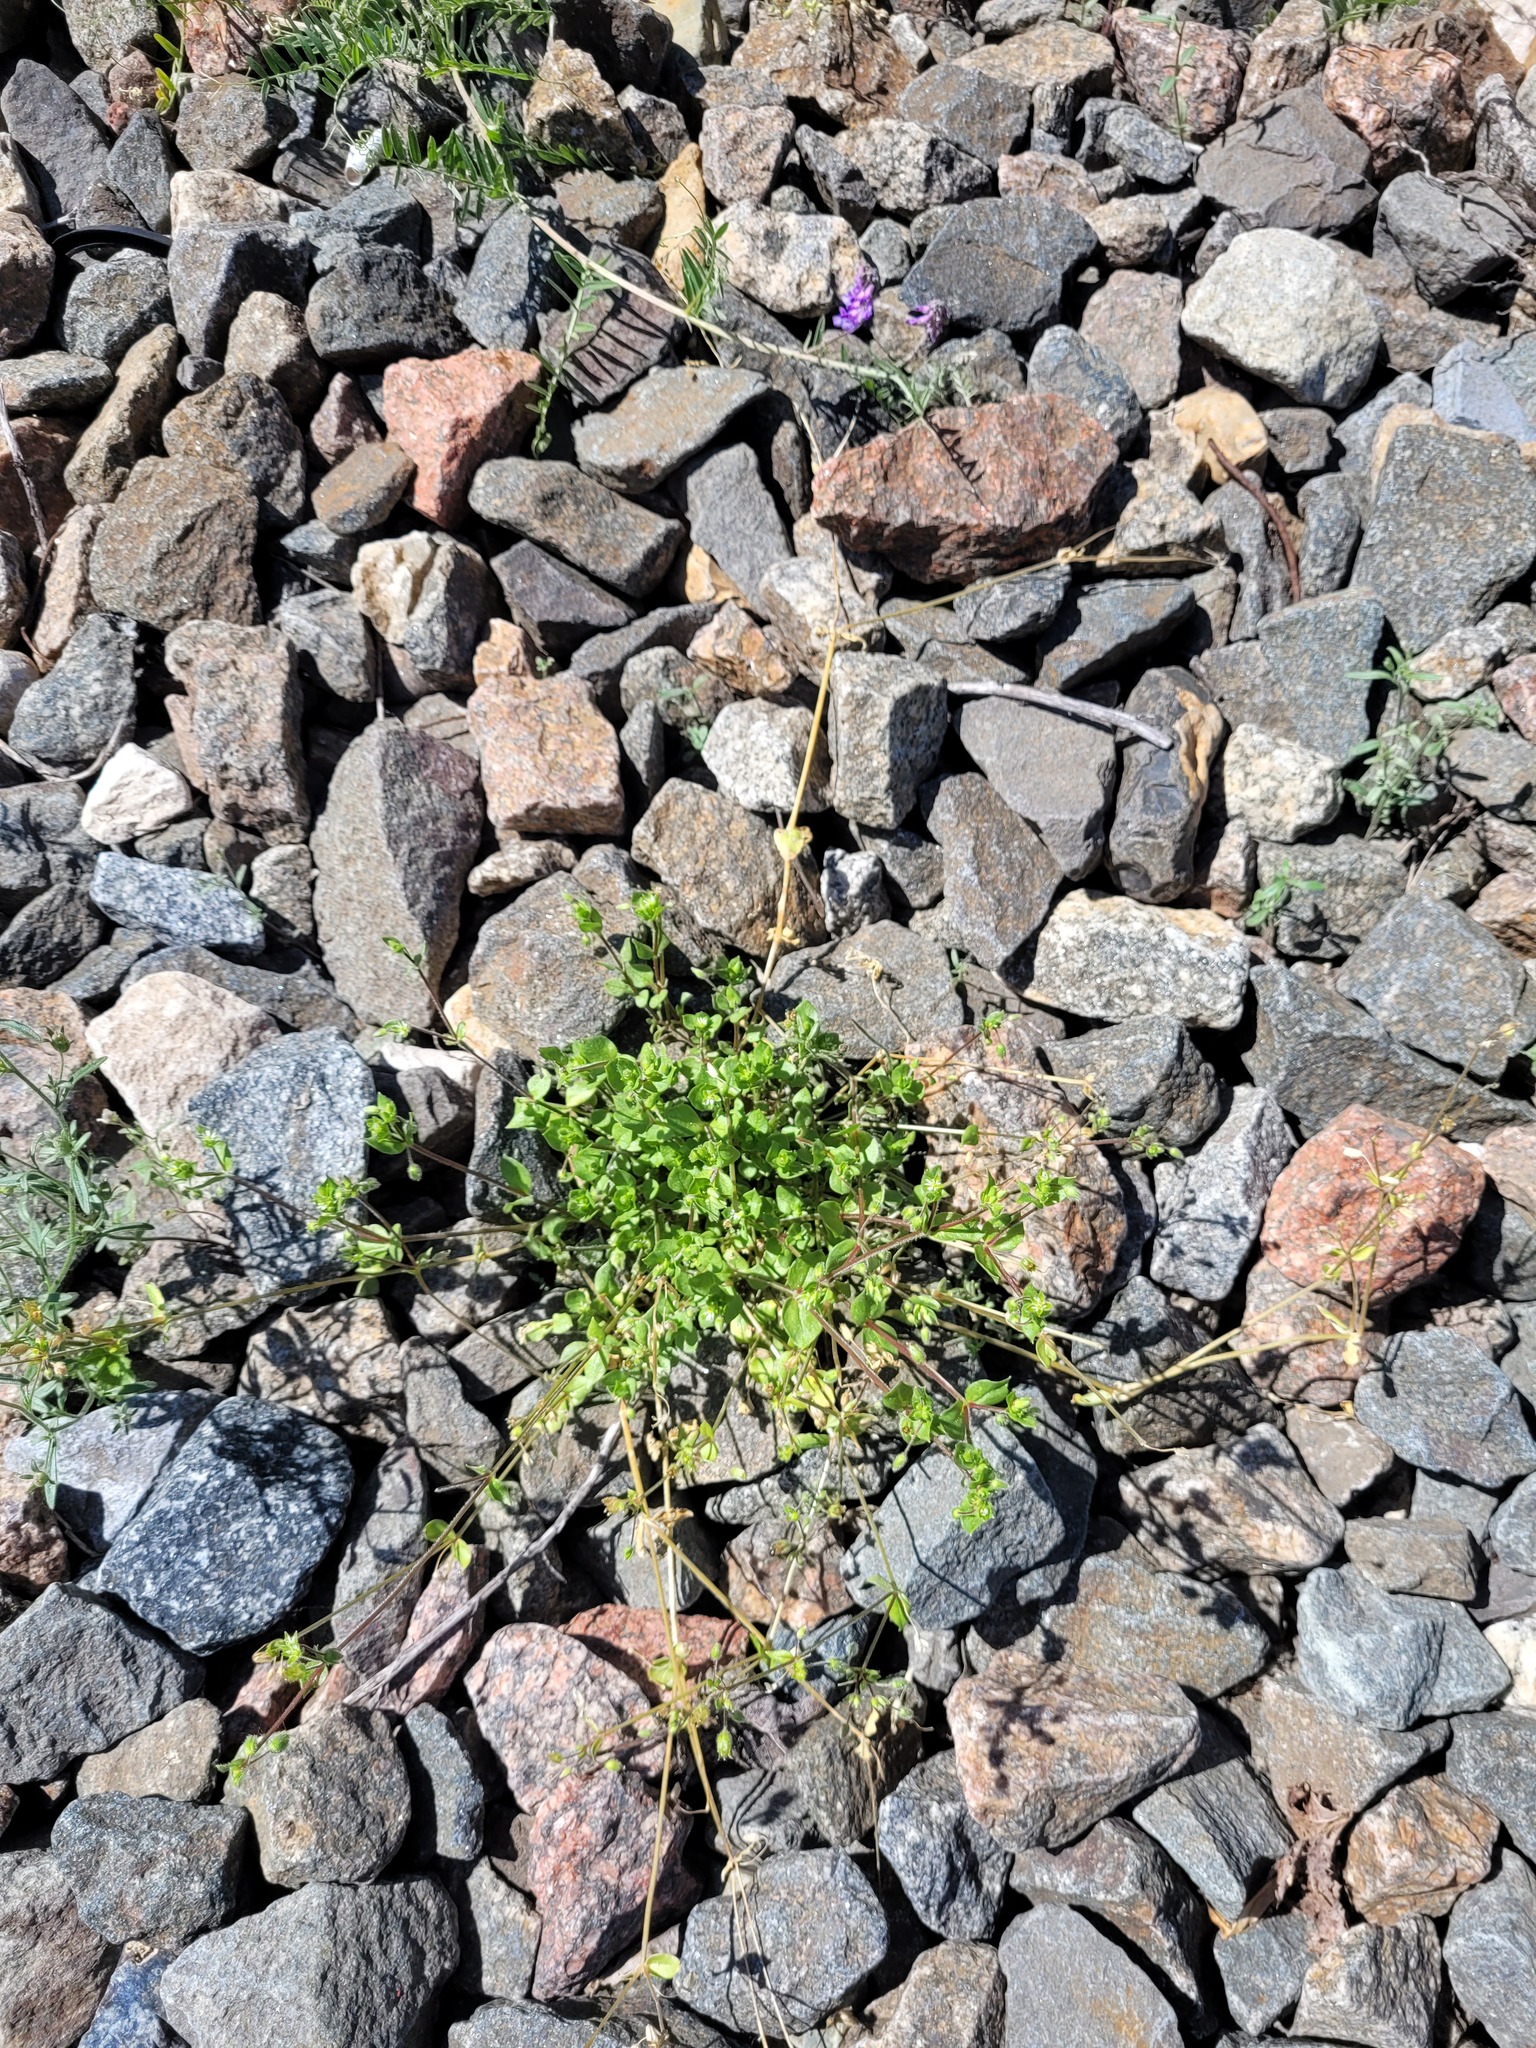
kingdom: Plantae
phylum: Tracheophyta
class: Magnoliopsida
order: Caryophyllales
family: Caryophyllaceae
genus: Stellaria
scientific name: Stellaria media
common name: Common chickweed
